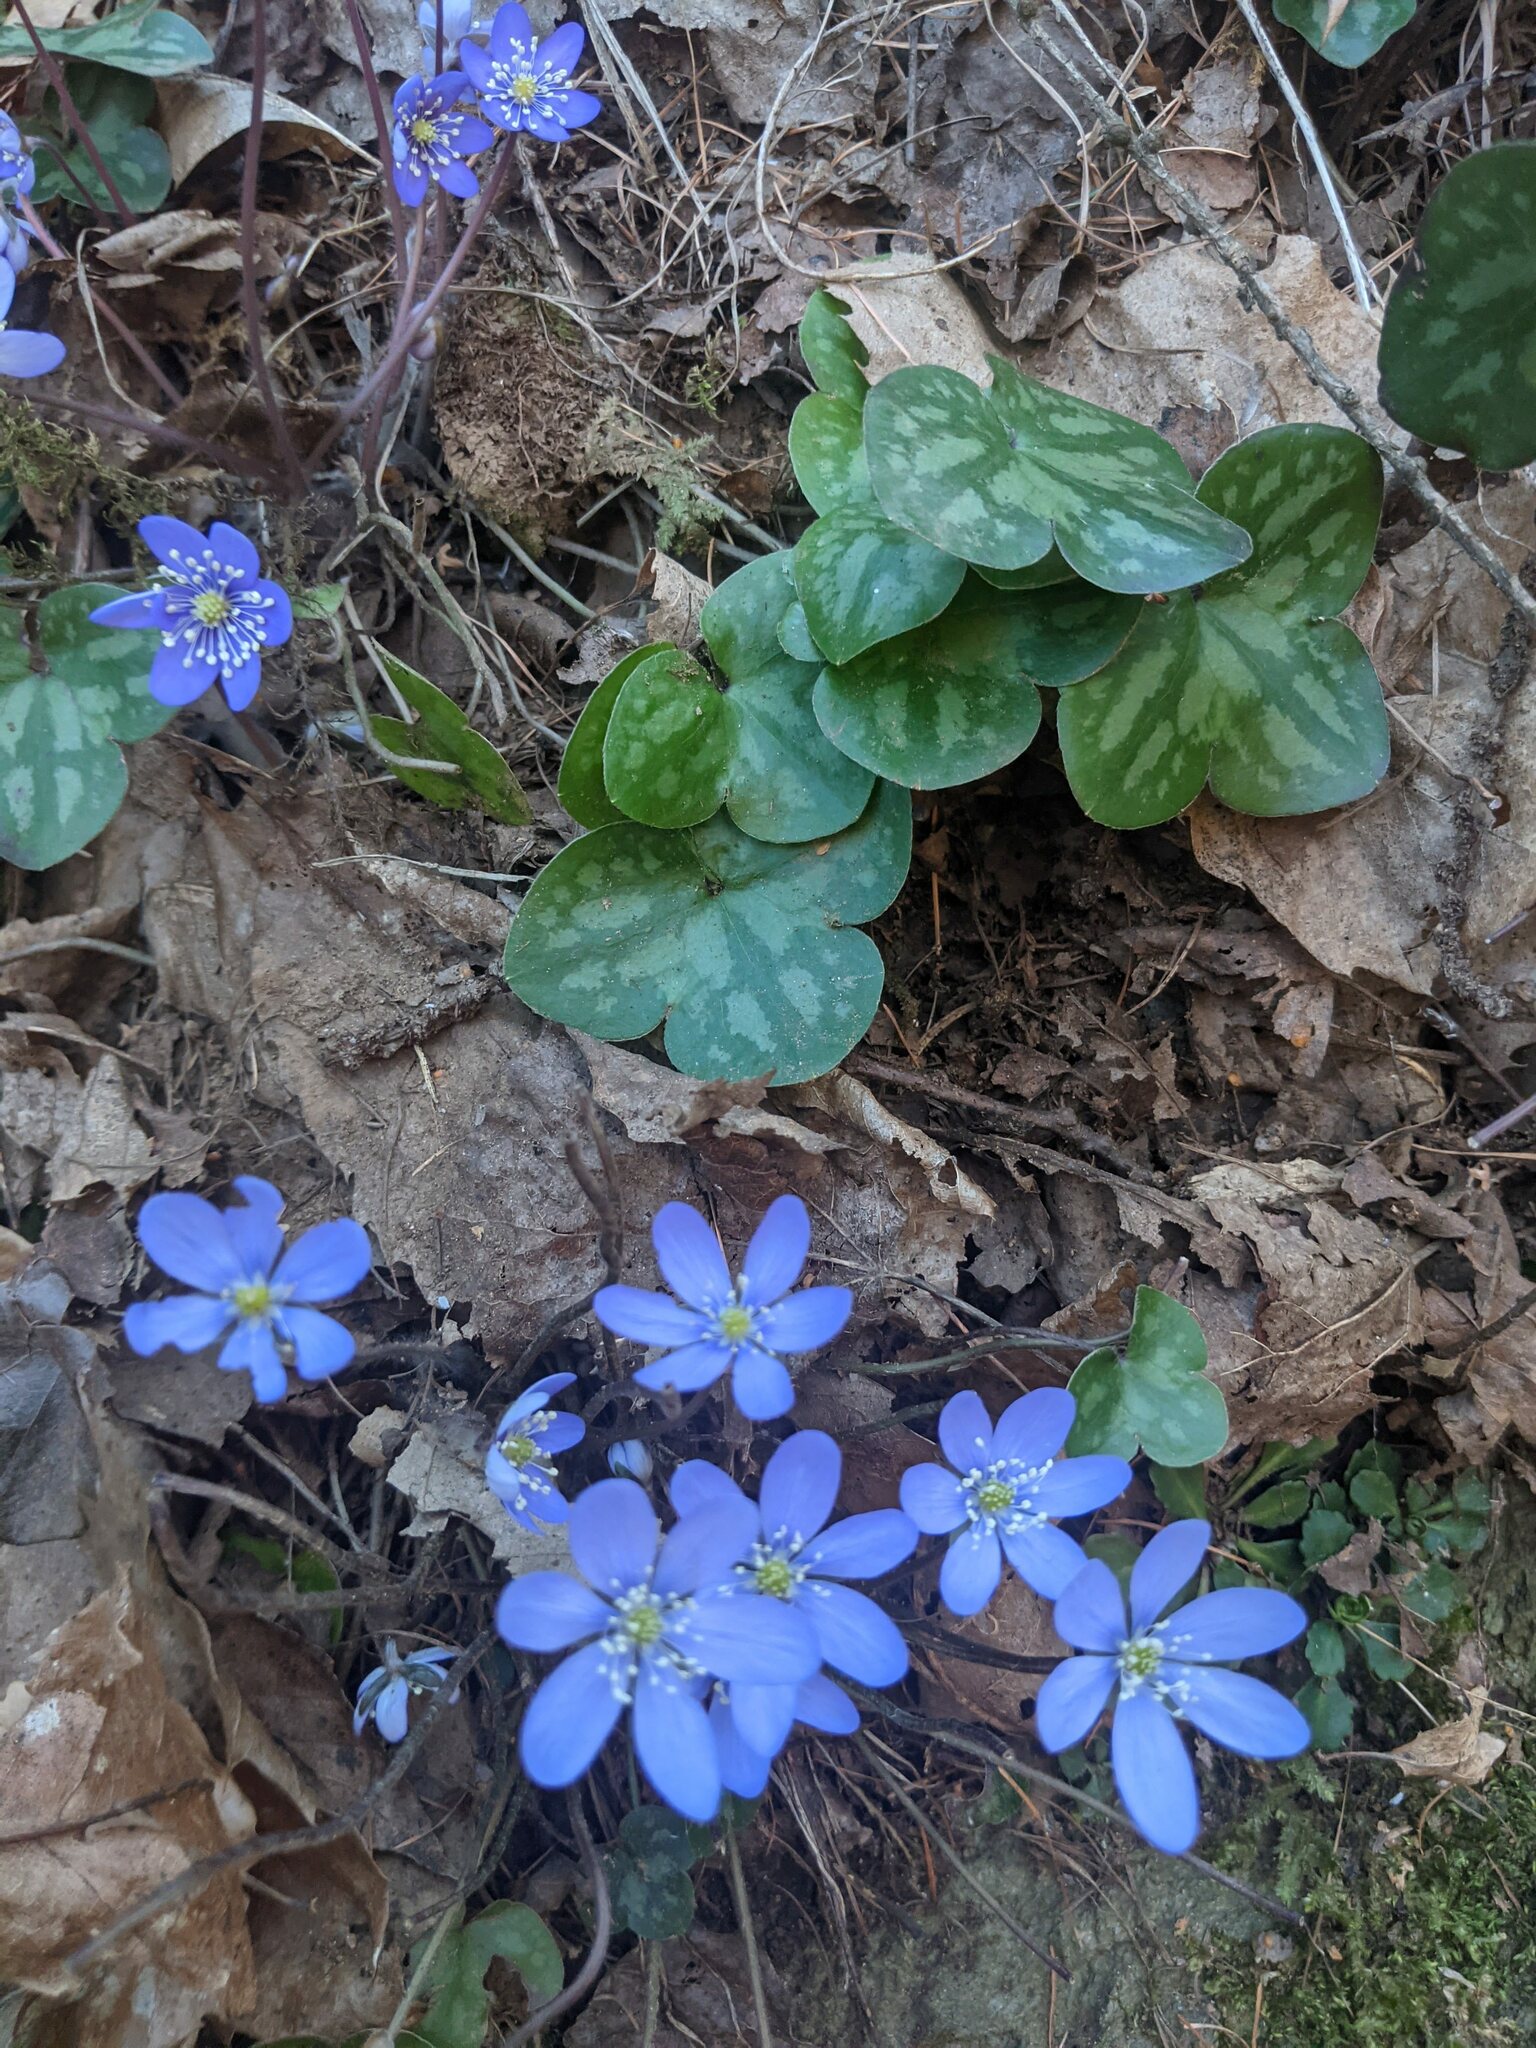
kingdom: Plantae
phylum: Tracheophyta
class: Magnoliopsida
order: Ranunculales
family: Ranunculaceae
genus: Hepatica
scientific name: Hepatica nobilis
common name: Liverleaf
